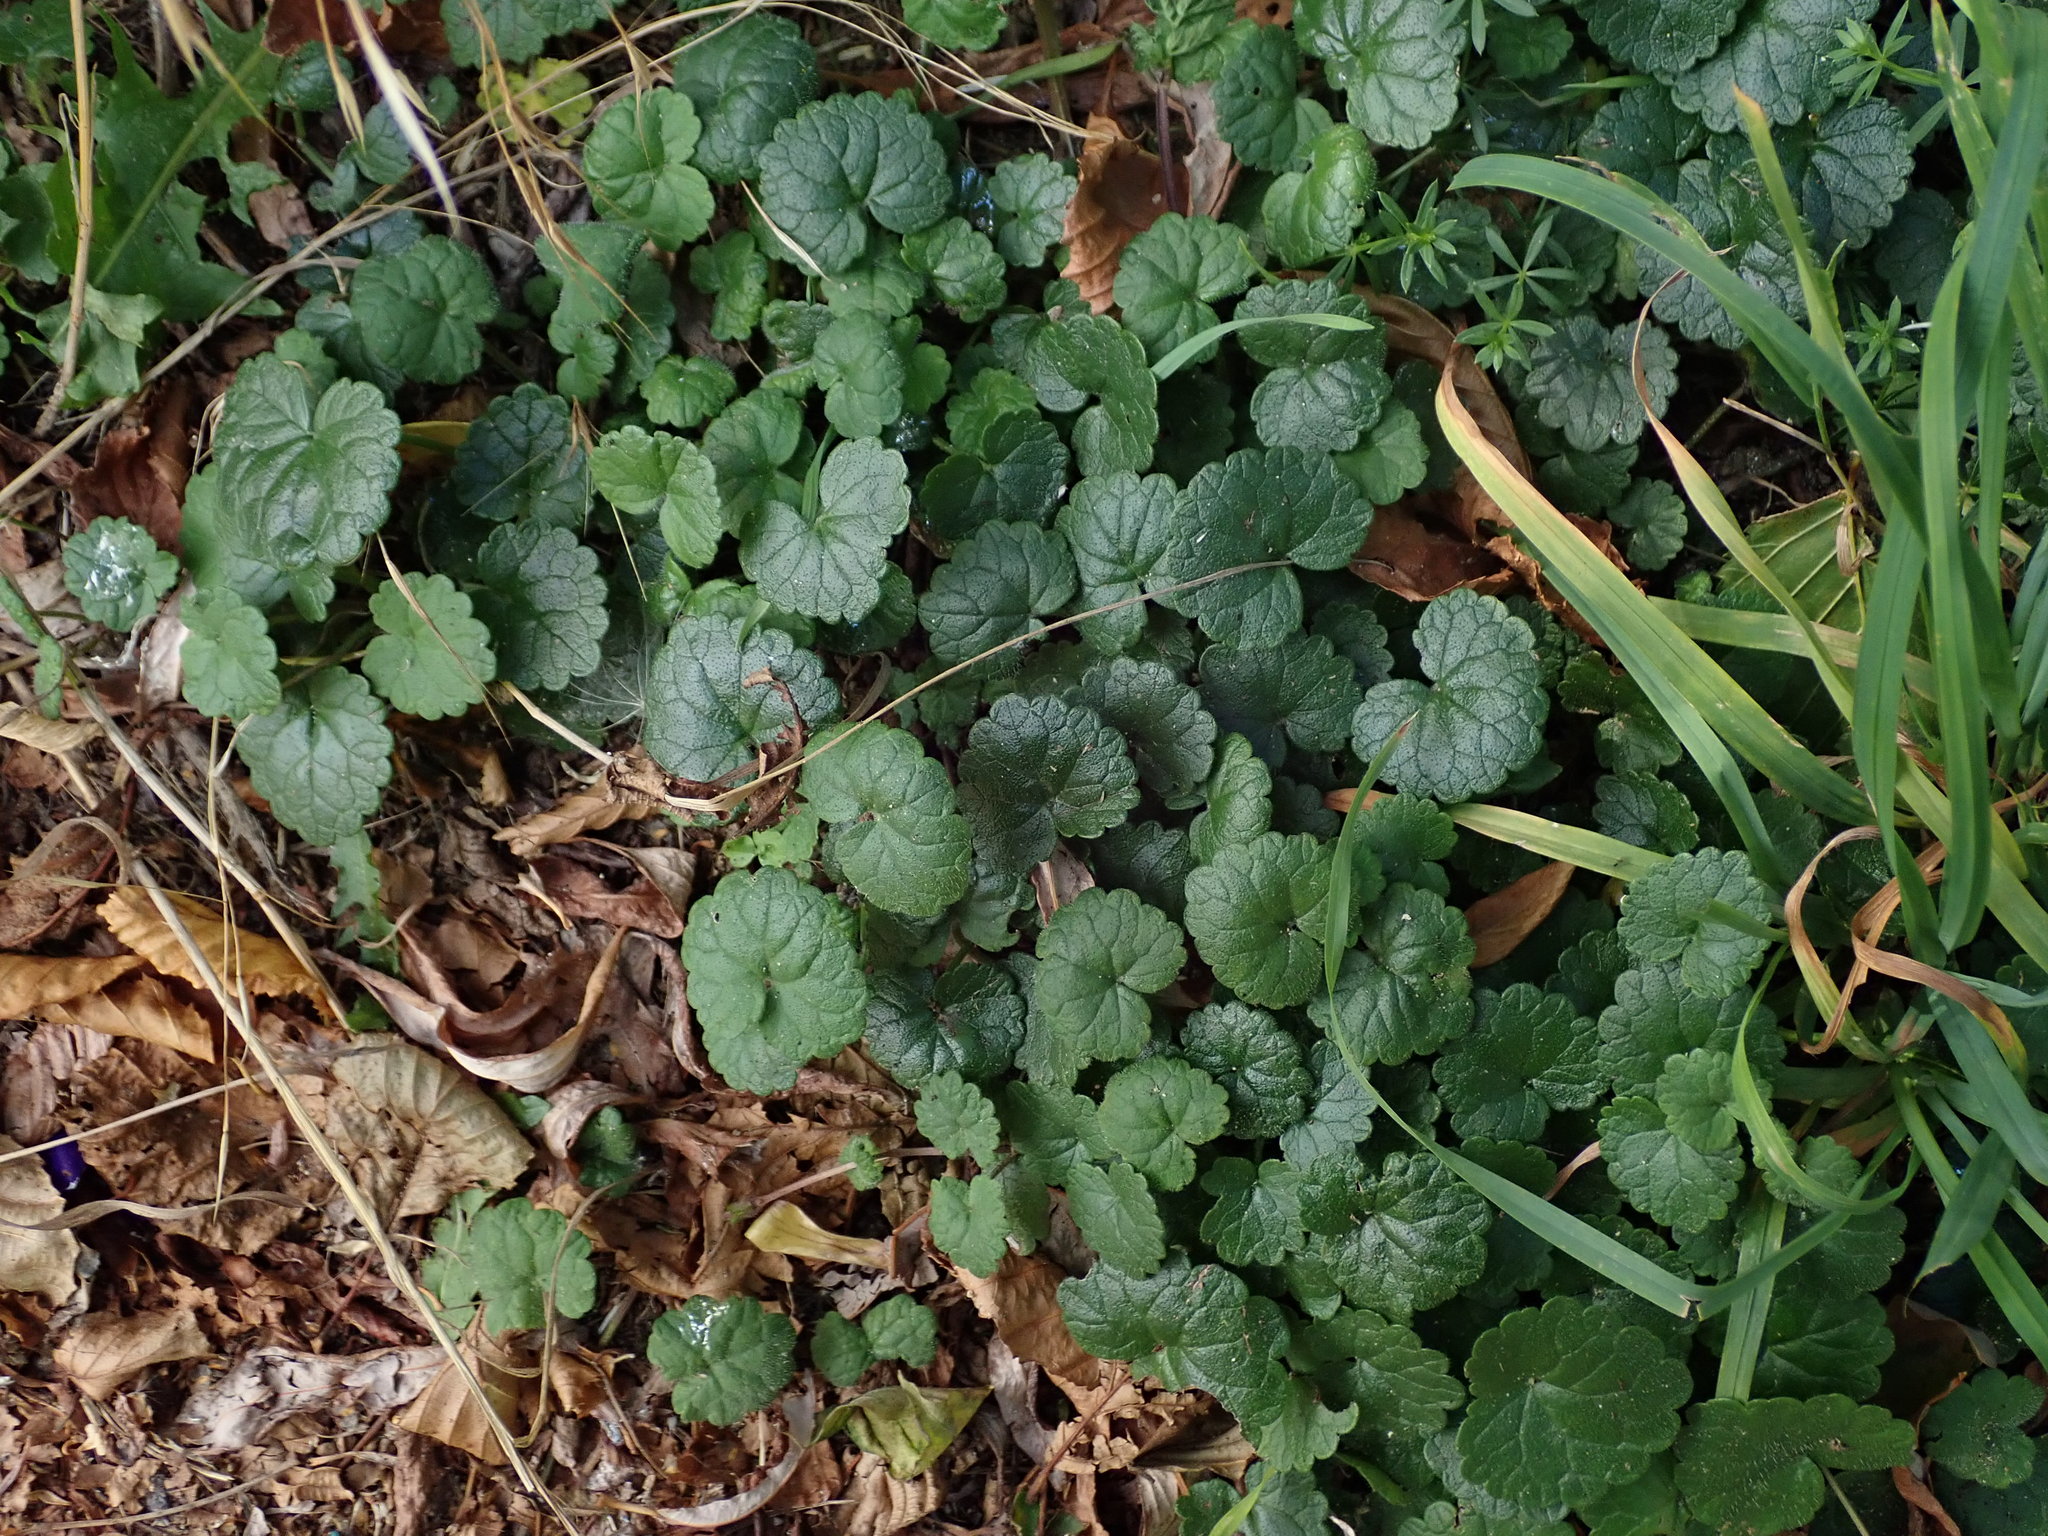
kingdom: Plantae
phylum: Tracheophyta
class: Magnoliopsida
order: Lamiales
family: Lamiaceae
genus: Glechoma
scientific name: Glechoma hederacea
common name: Ground ivy
